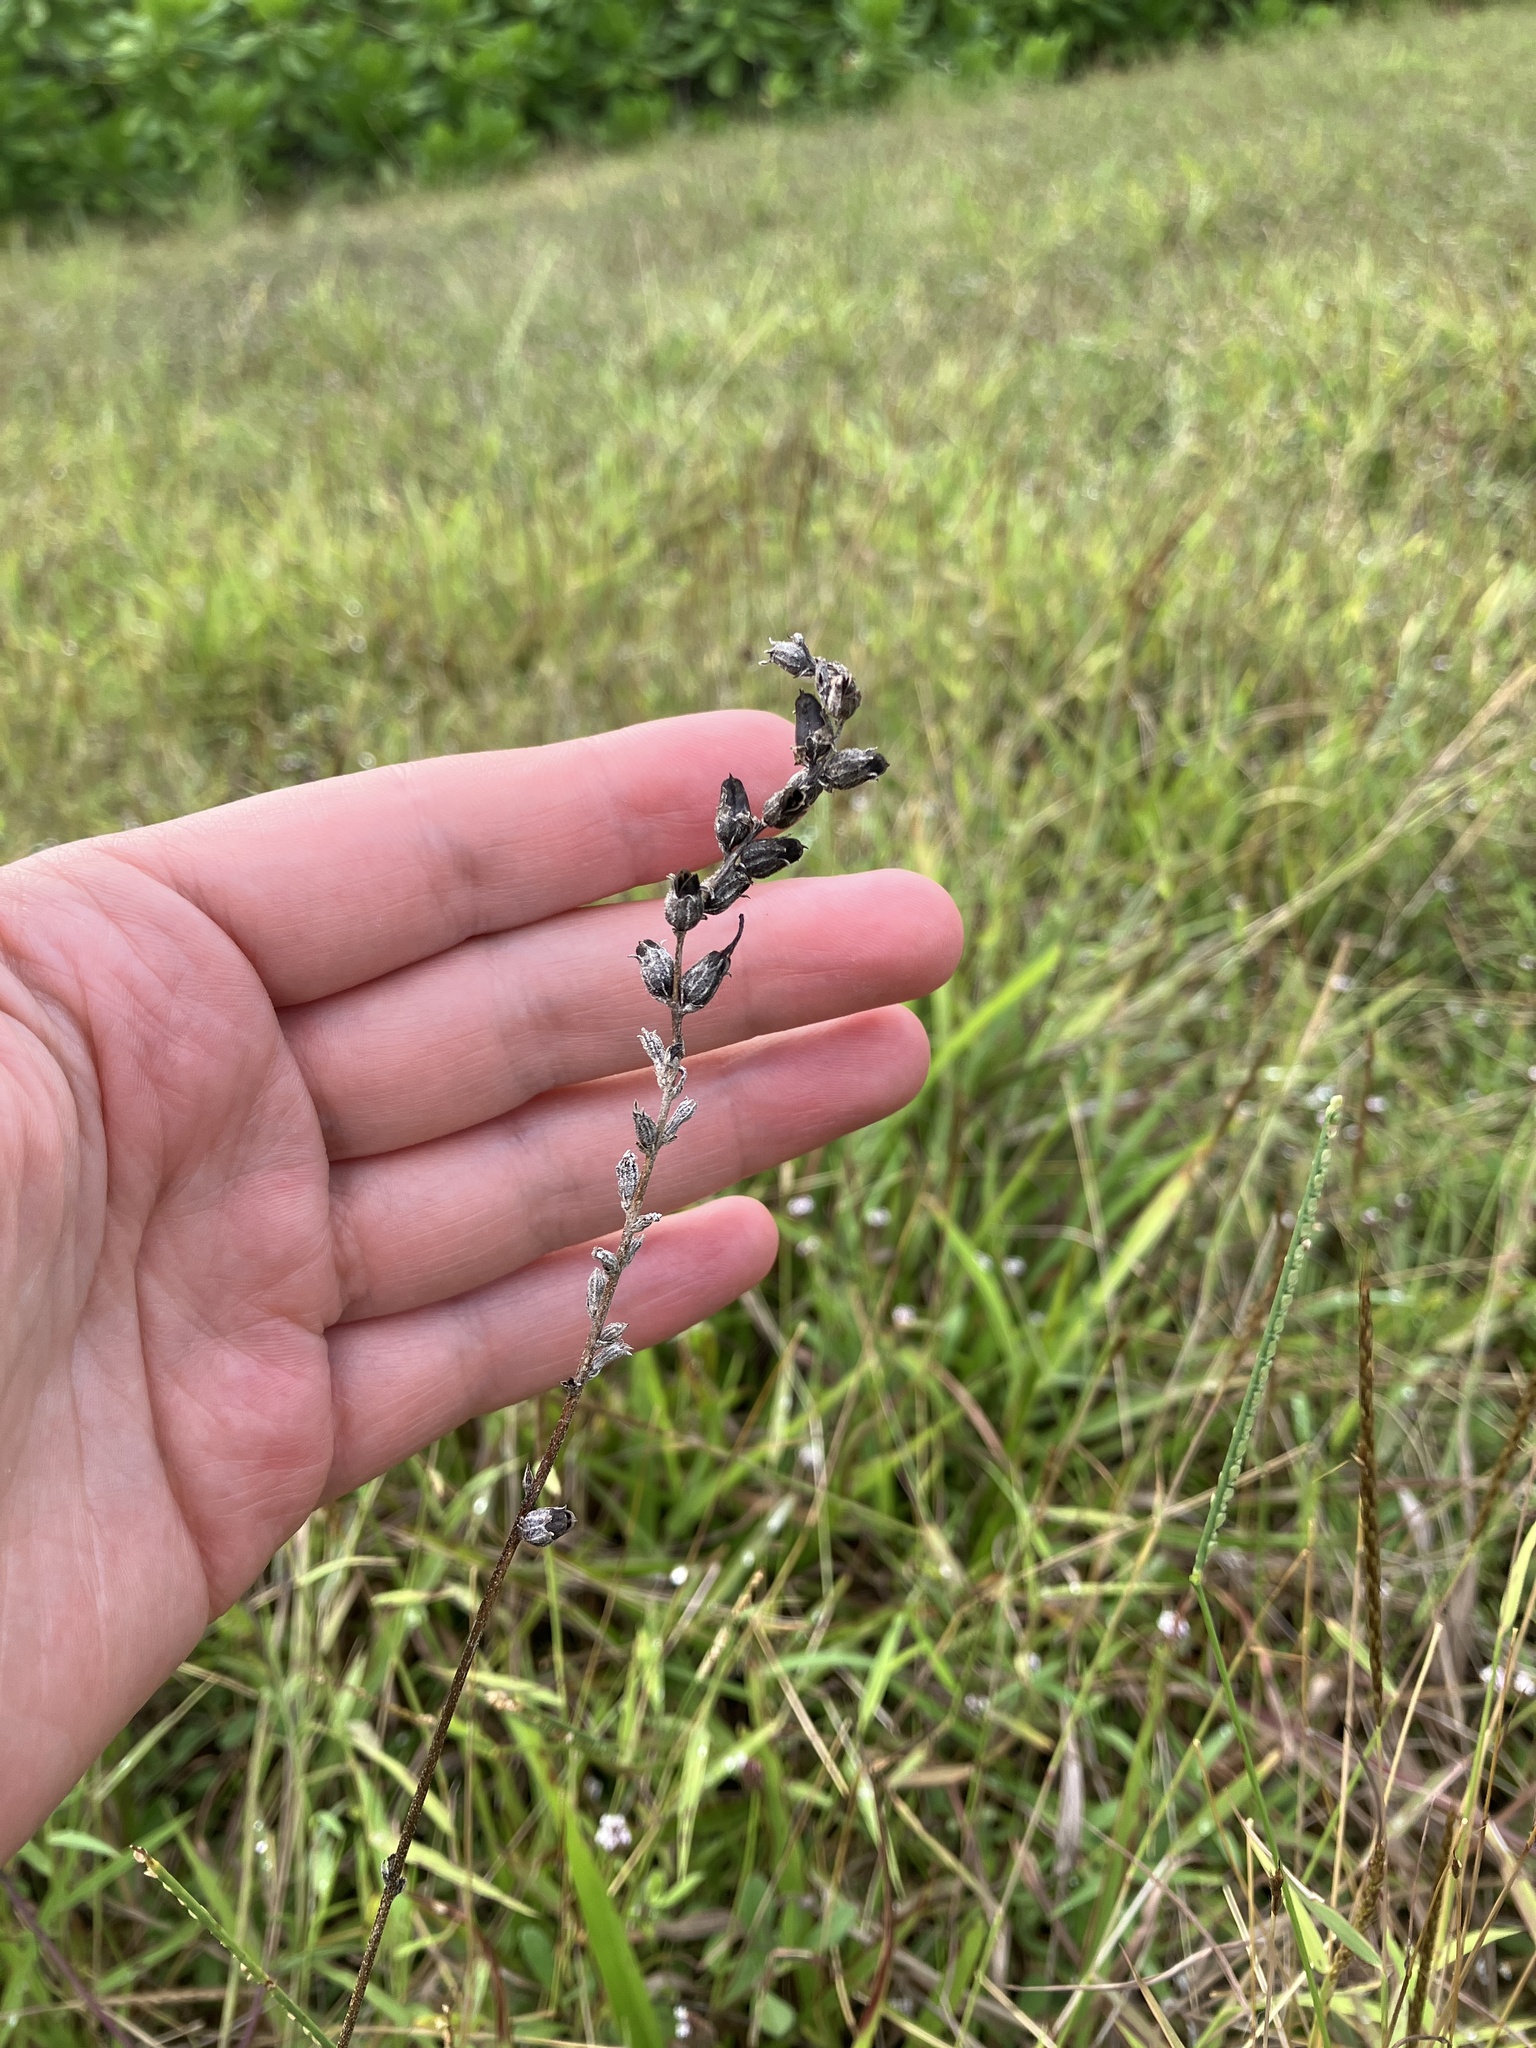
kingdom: Plantae
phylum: Tracheophyta
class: Magnoliopsida
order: Lamiales
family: Orobanchaceae
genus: Buchnera
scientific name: Buchnera hispida
